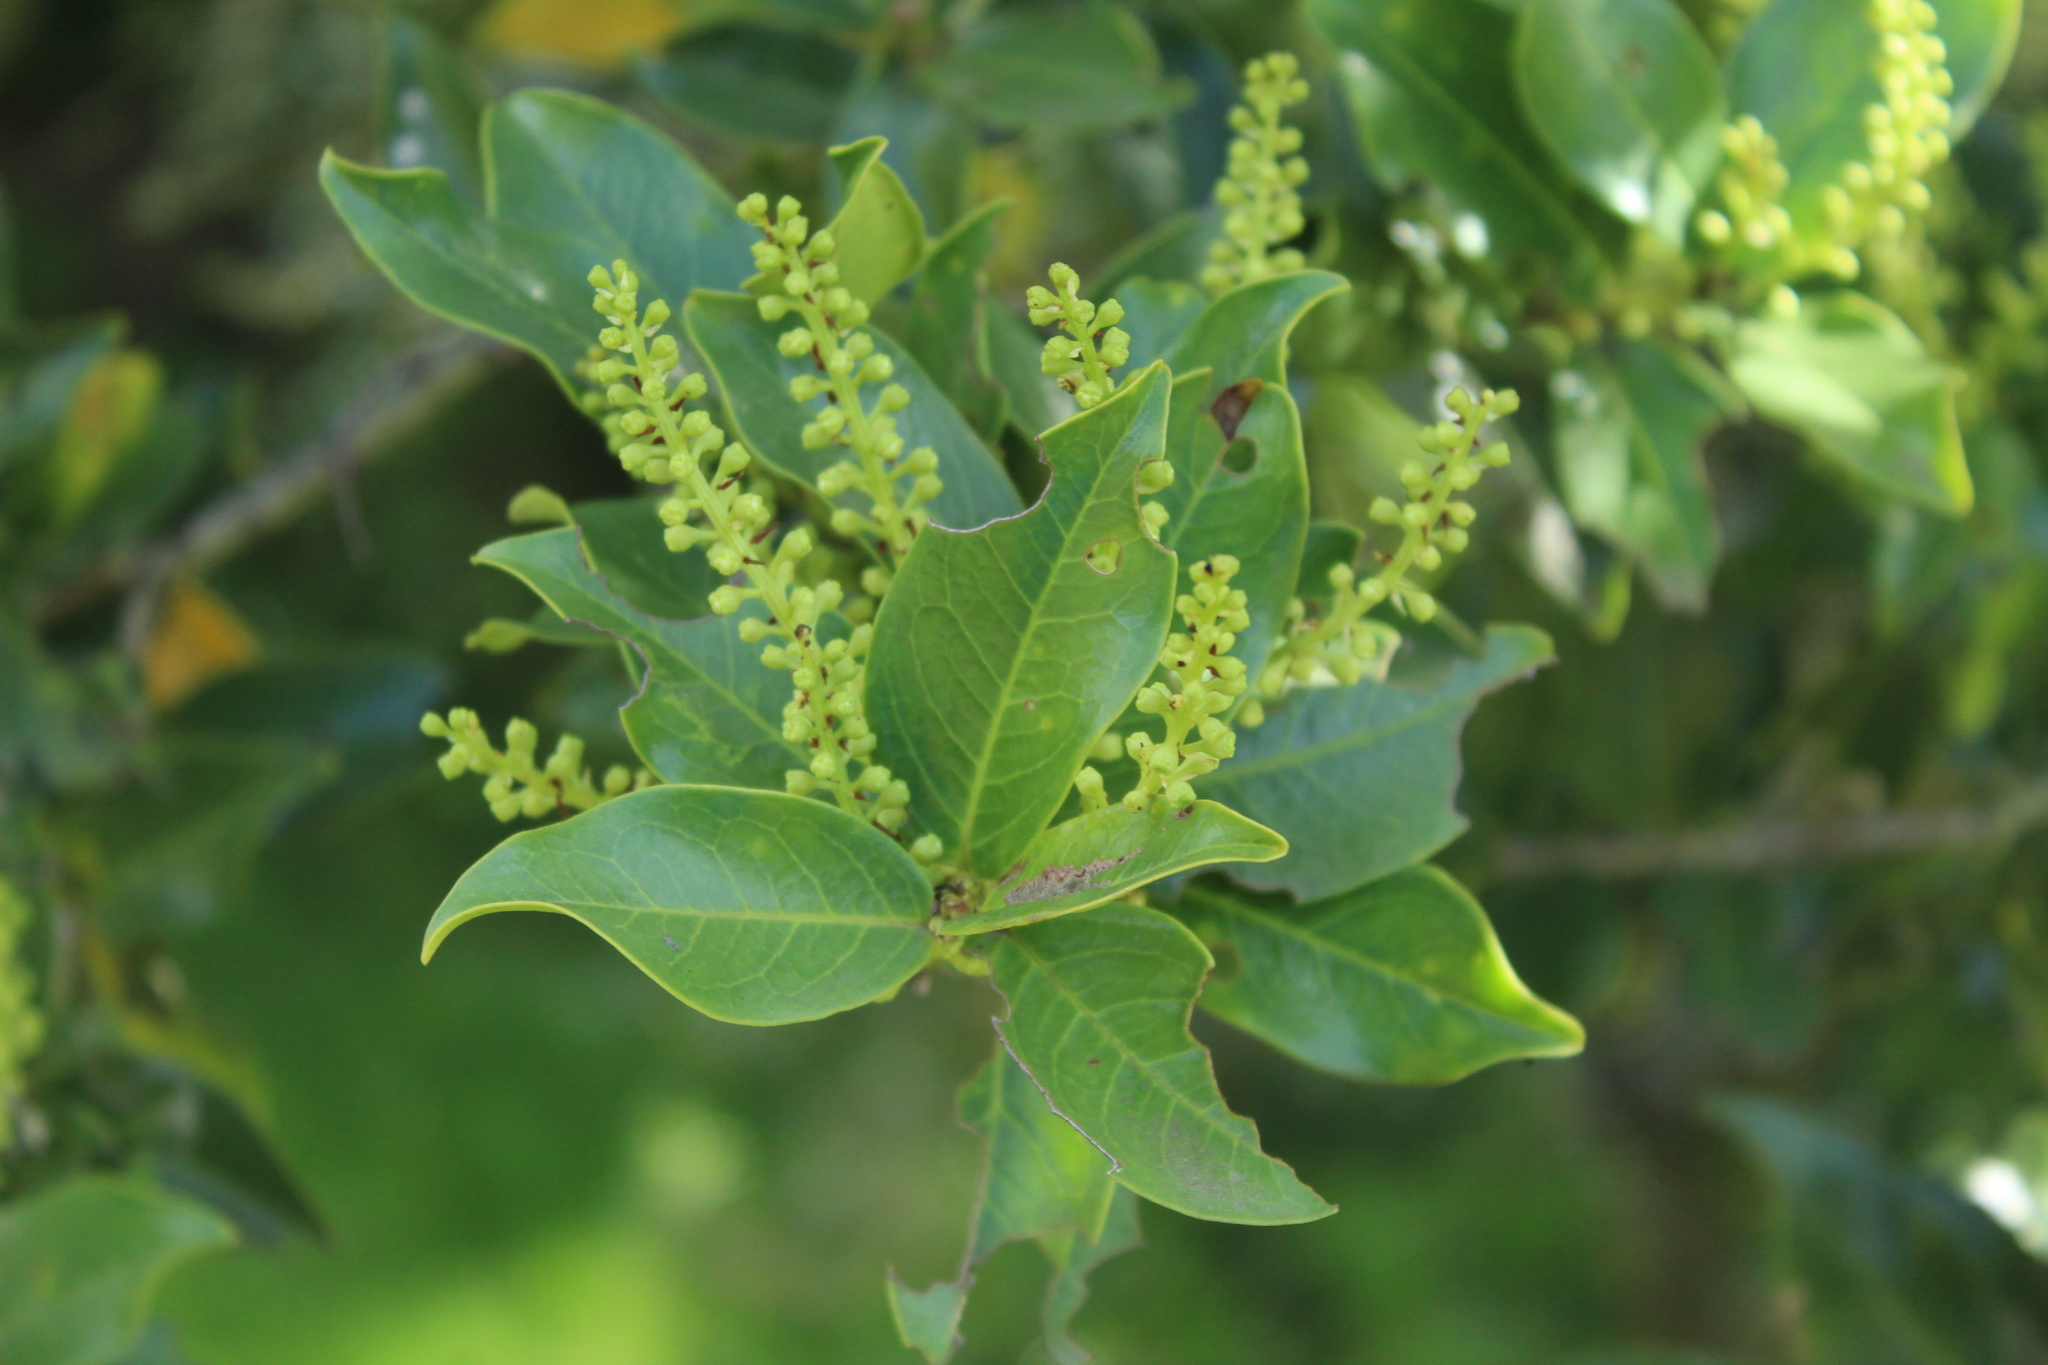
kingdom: Plantae
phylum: Tracheophyta
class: Magnoliopsida
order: Rosales
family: Rosaceae
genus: Prunus
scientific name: Prunus buxifolia
